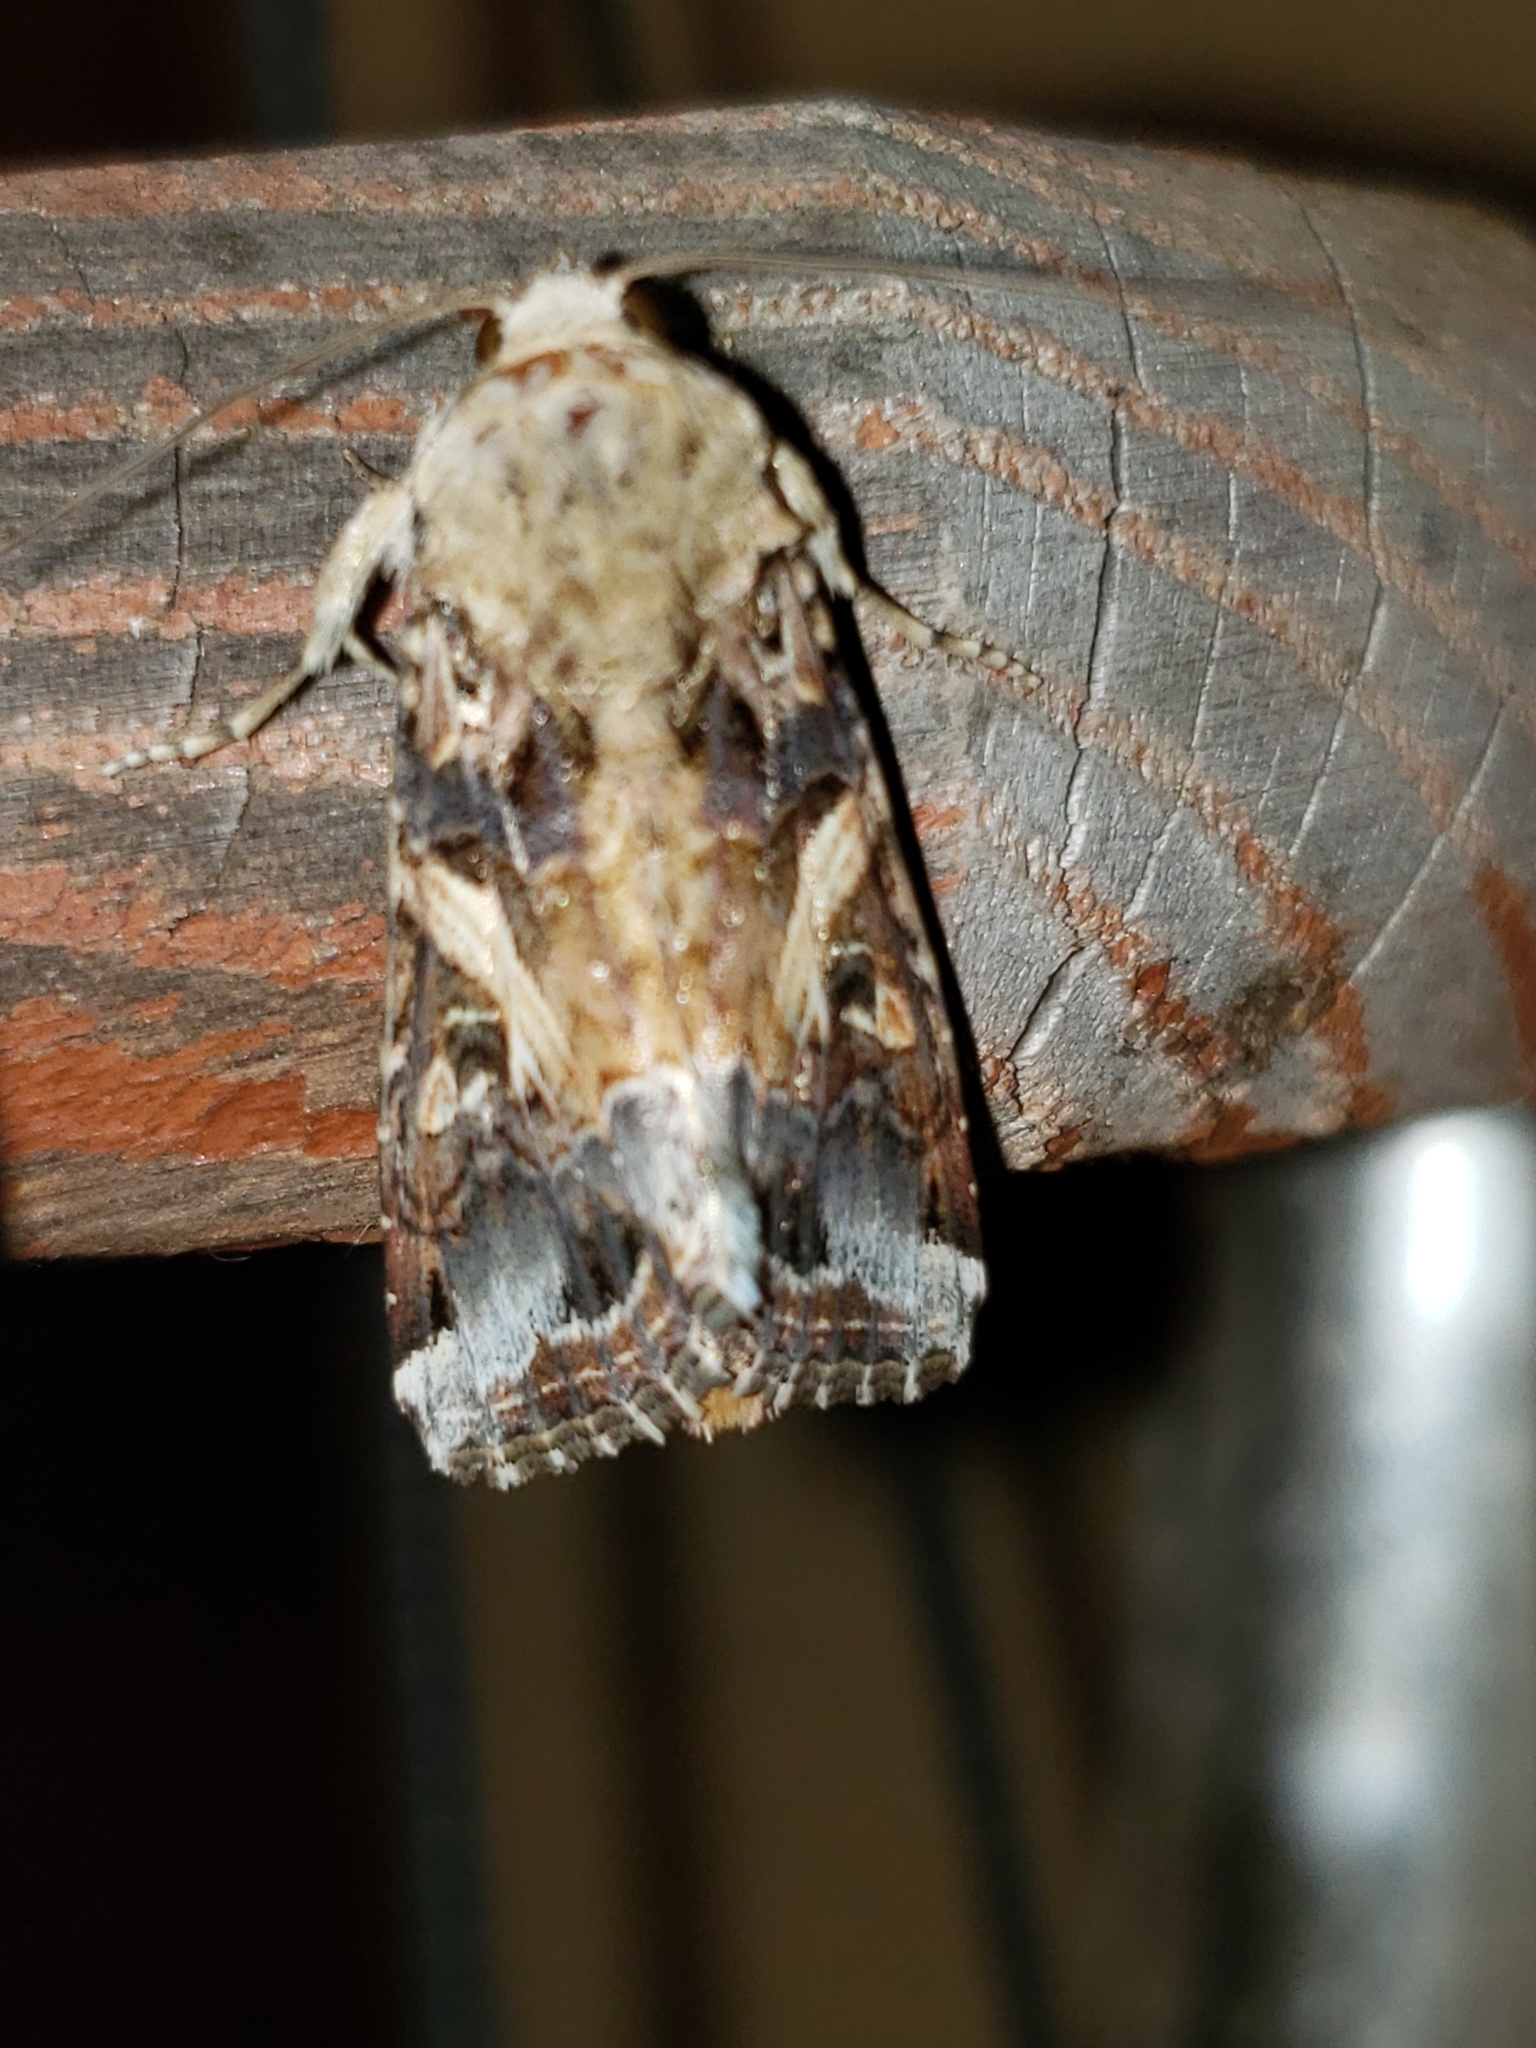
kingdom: Animalia
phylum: Arthropoda
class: Insecta
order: Lepidoptera
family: Noctuidae
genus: Spodoptera
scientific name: Spodoptera ornithogalli
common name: Yellow-striped armyworm
